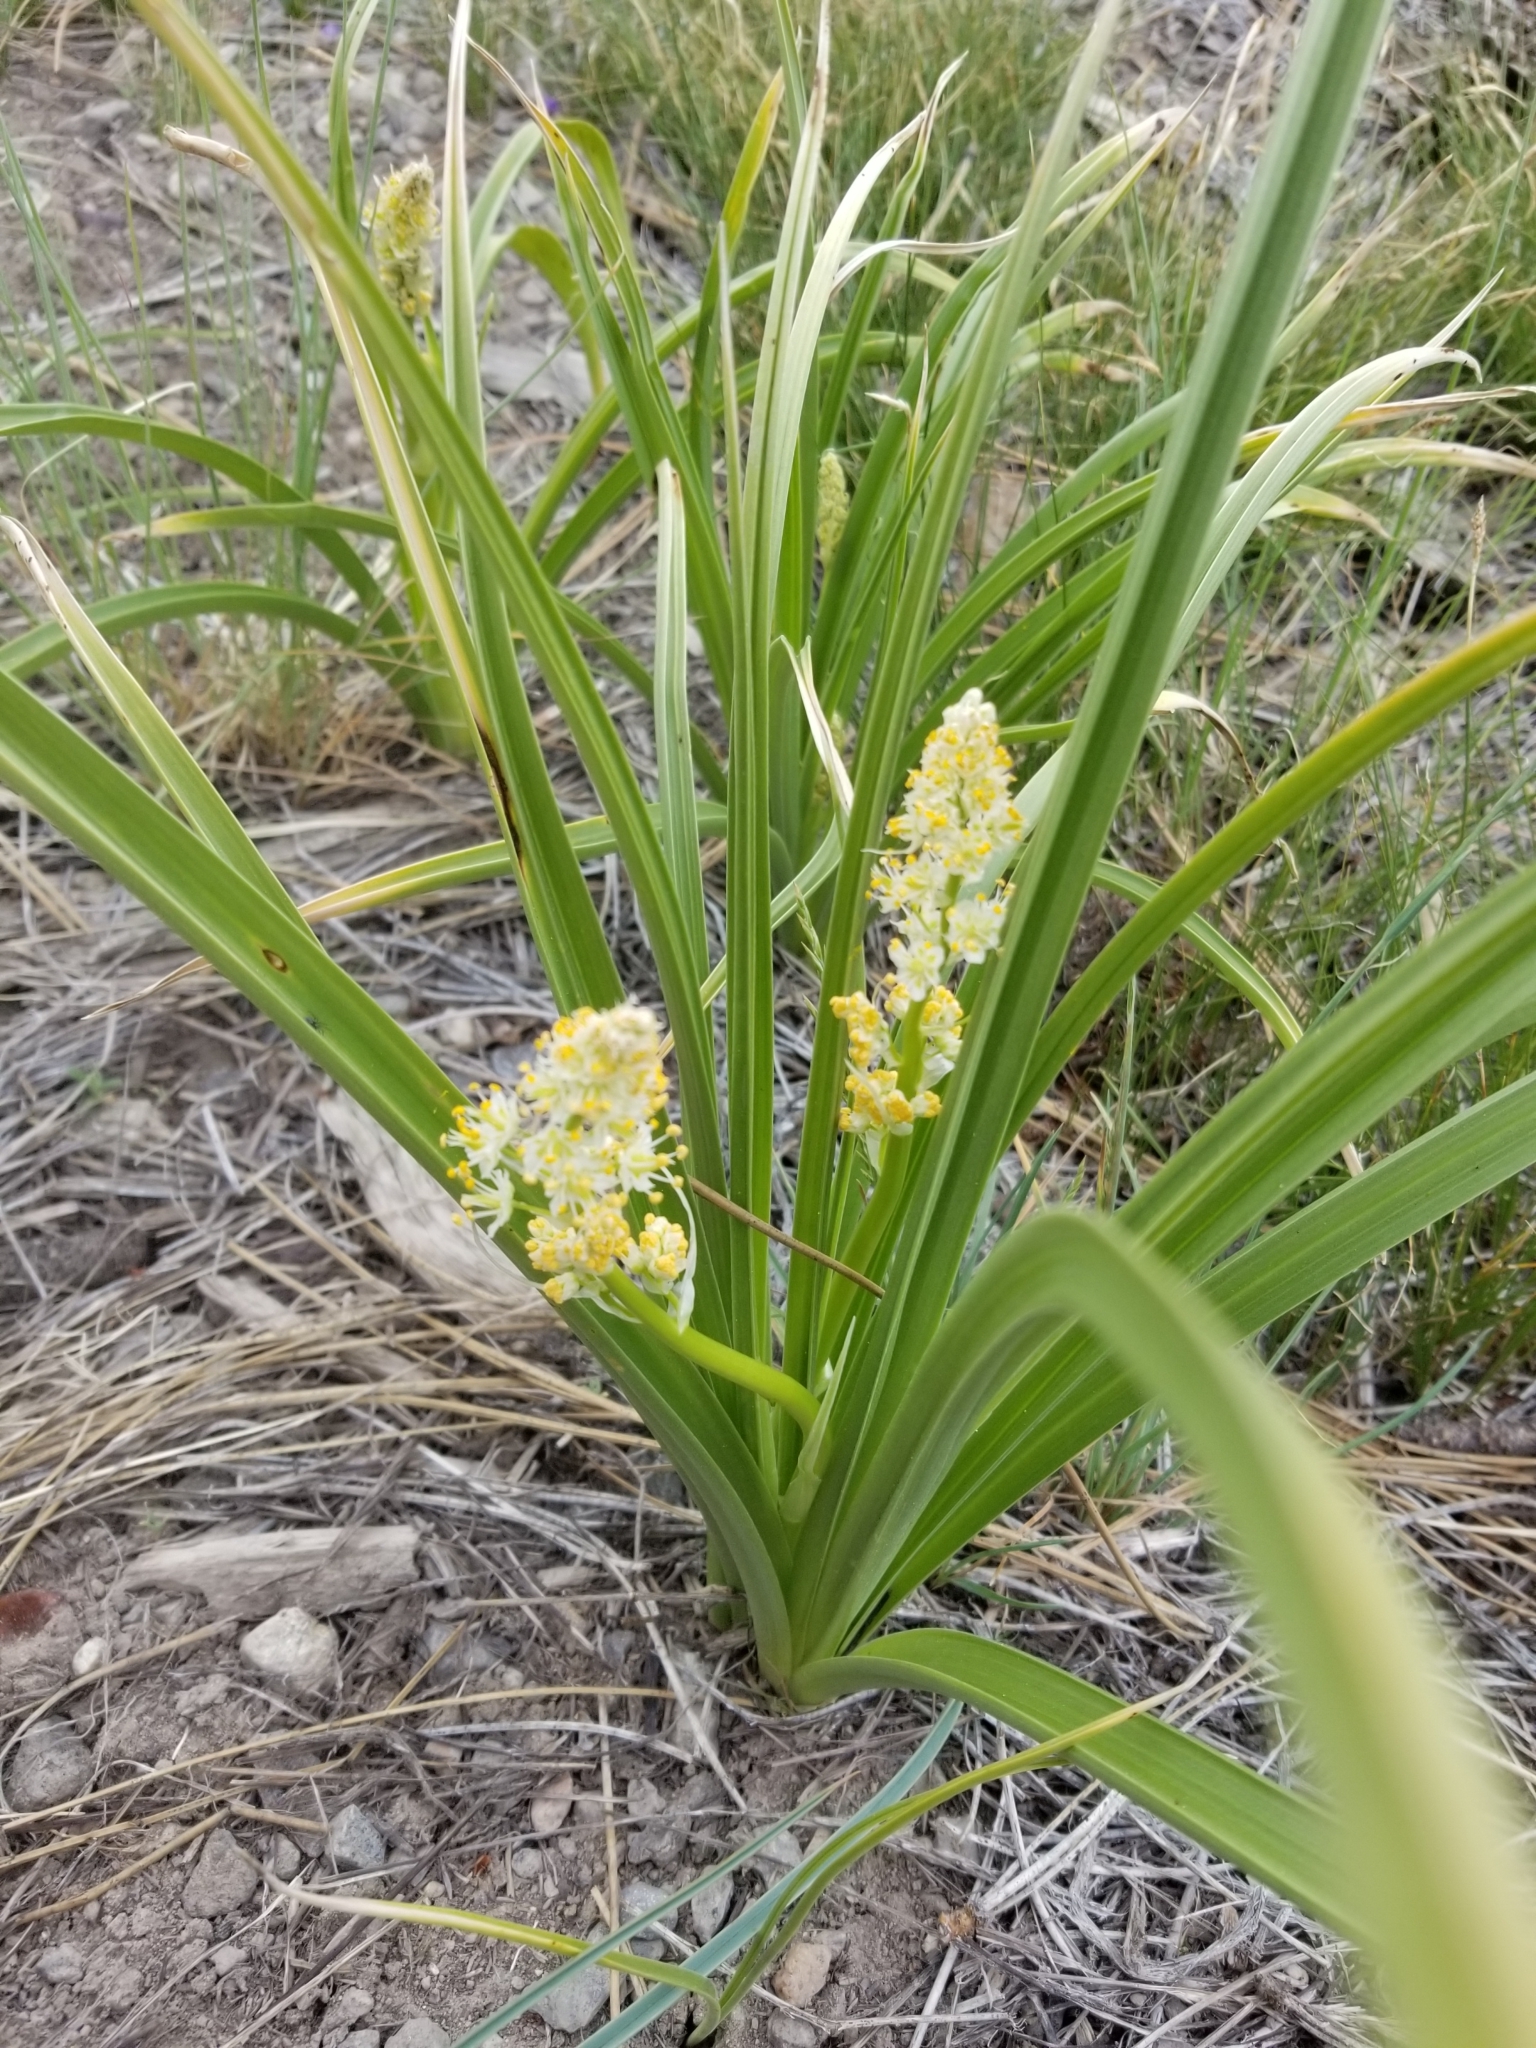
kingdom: Plantae
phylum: Tracheophyta
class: Liliopsida
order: Liliales
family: Melanthiaceae
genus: Toxicoscordion
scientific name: Toxicoscordion paniculatum
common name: Foothill death camas
